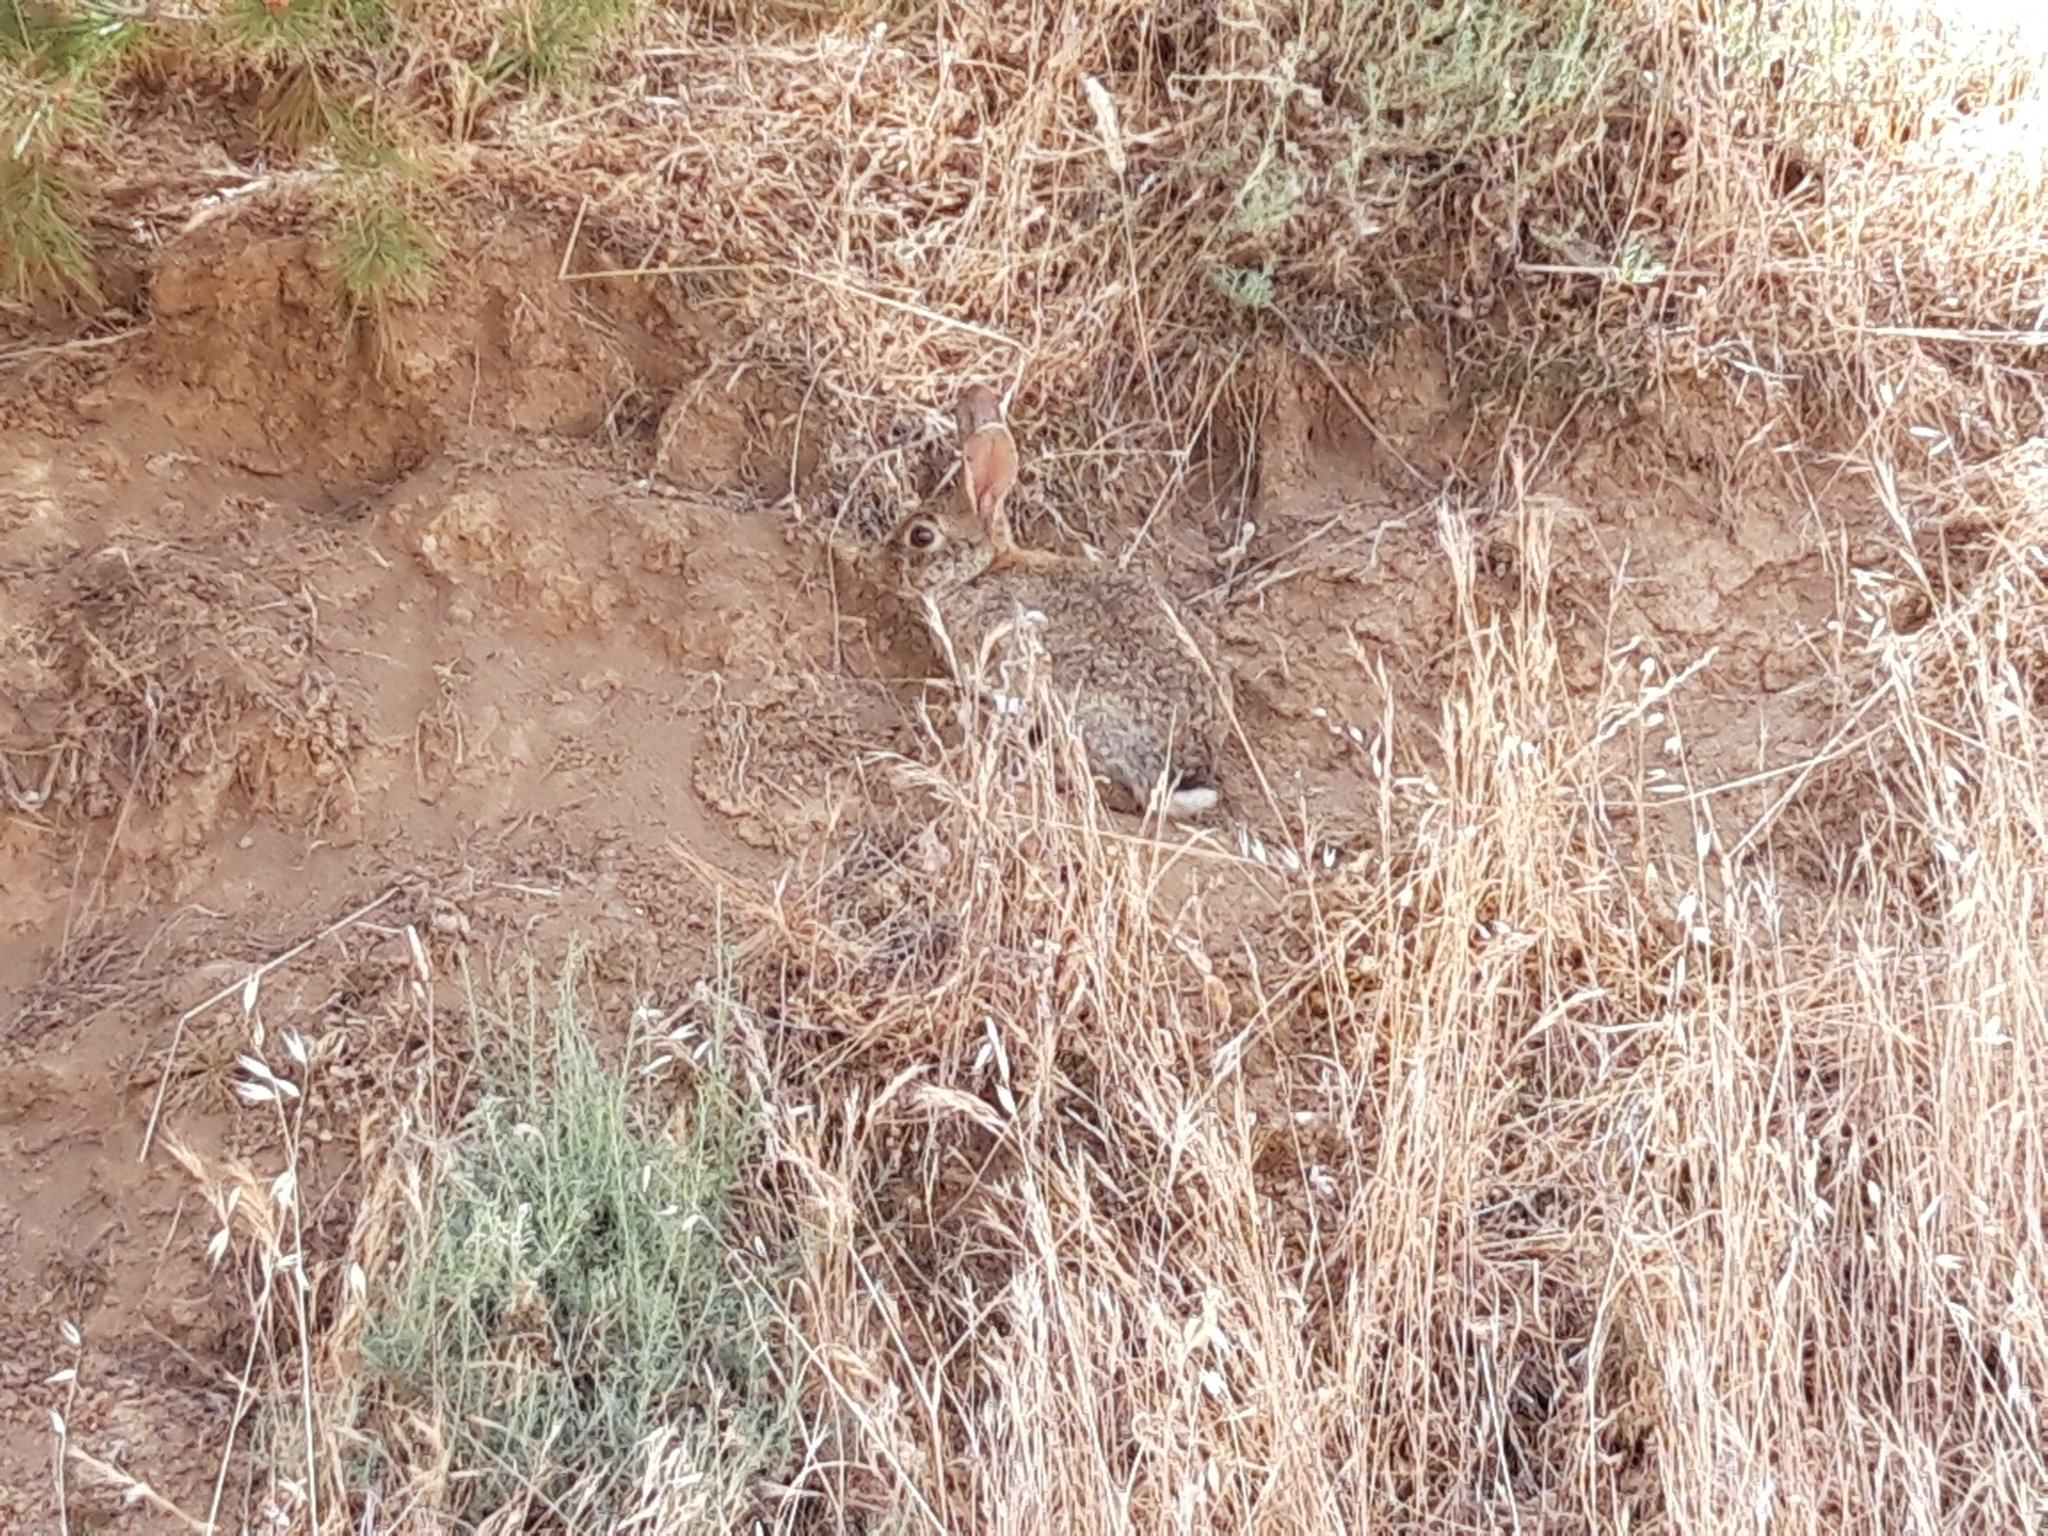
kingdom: Animalia
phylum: Chordata
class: Mammalia
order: Lagomorpha
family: Leporidae
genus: Oryctolagus
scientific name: Oryctolagus cuniculus
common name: European rabbit
